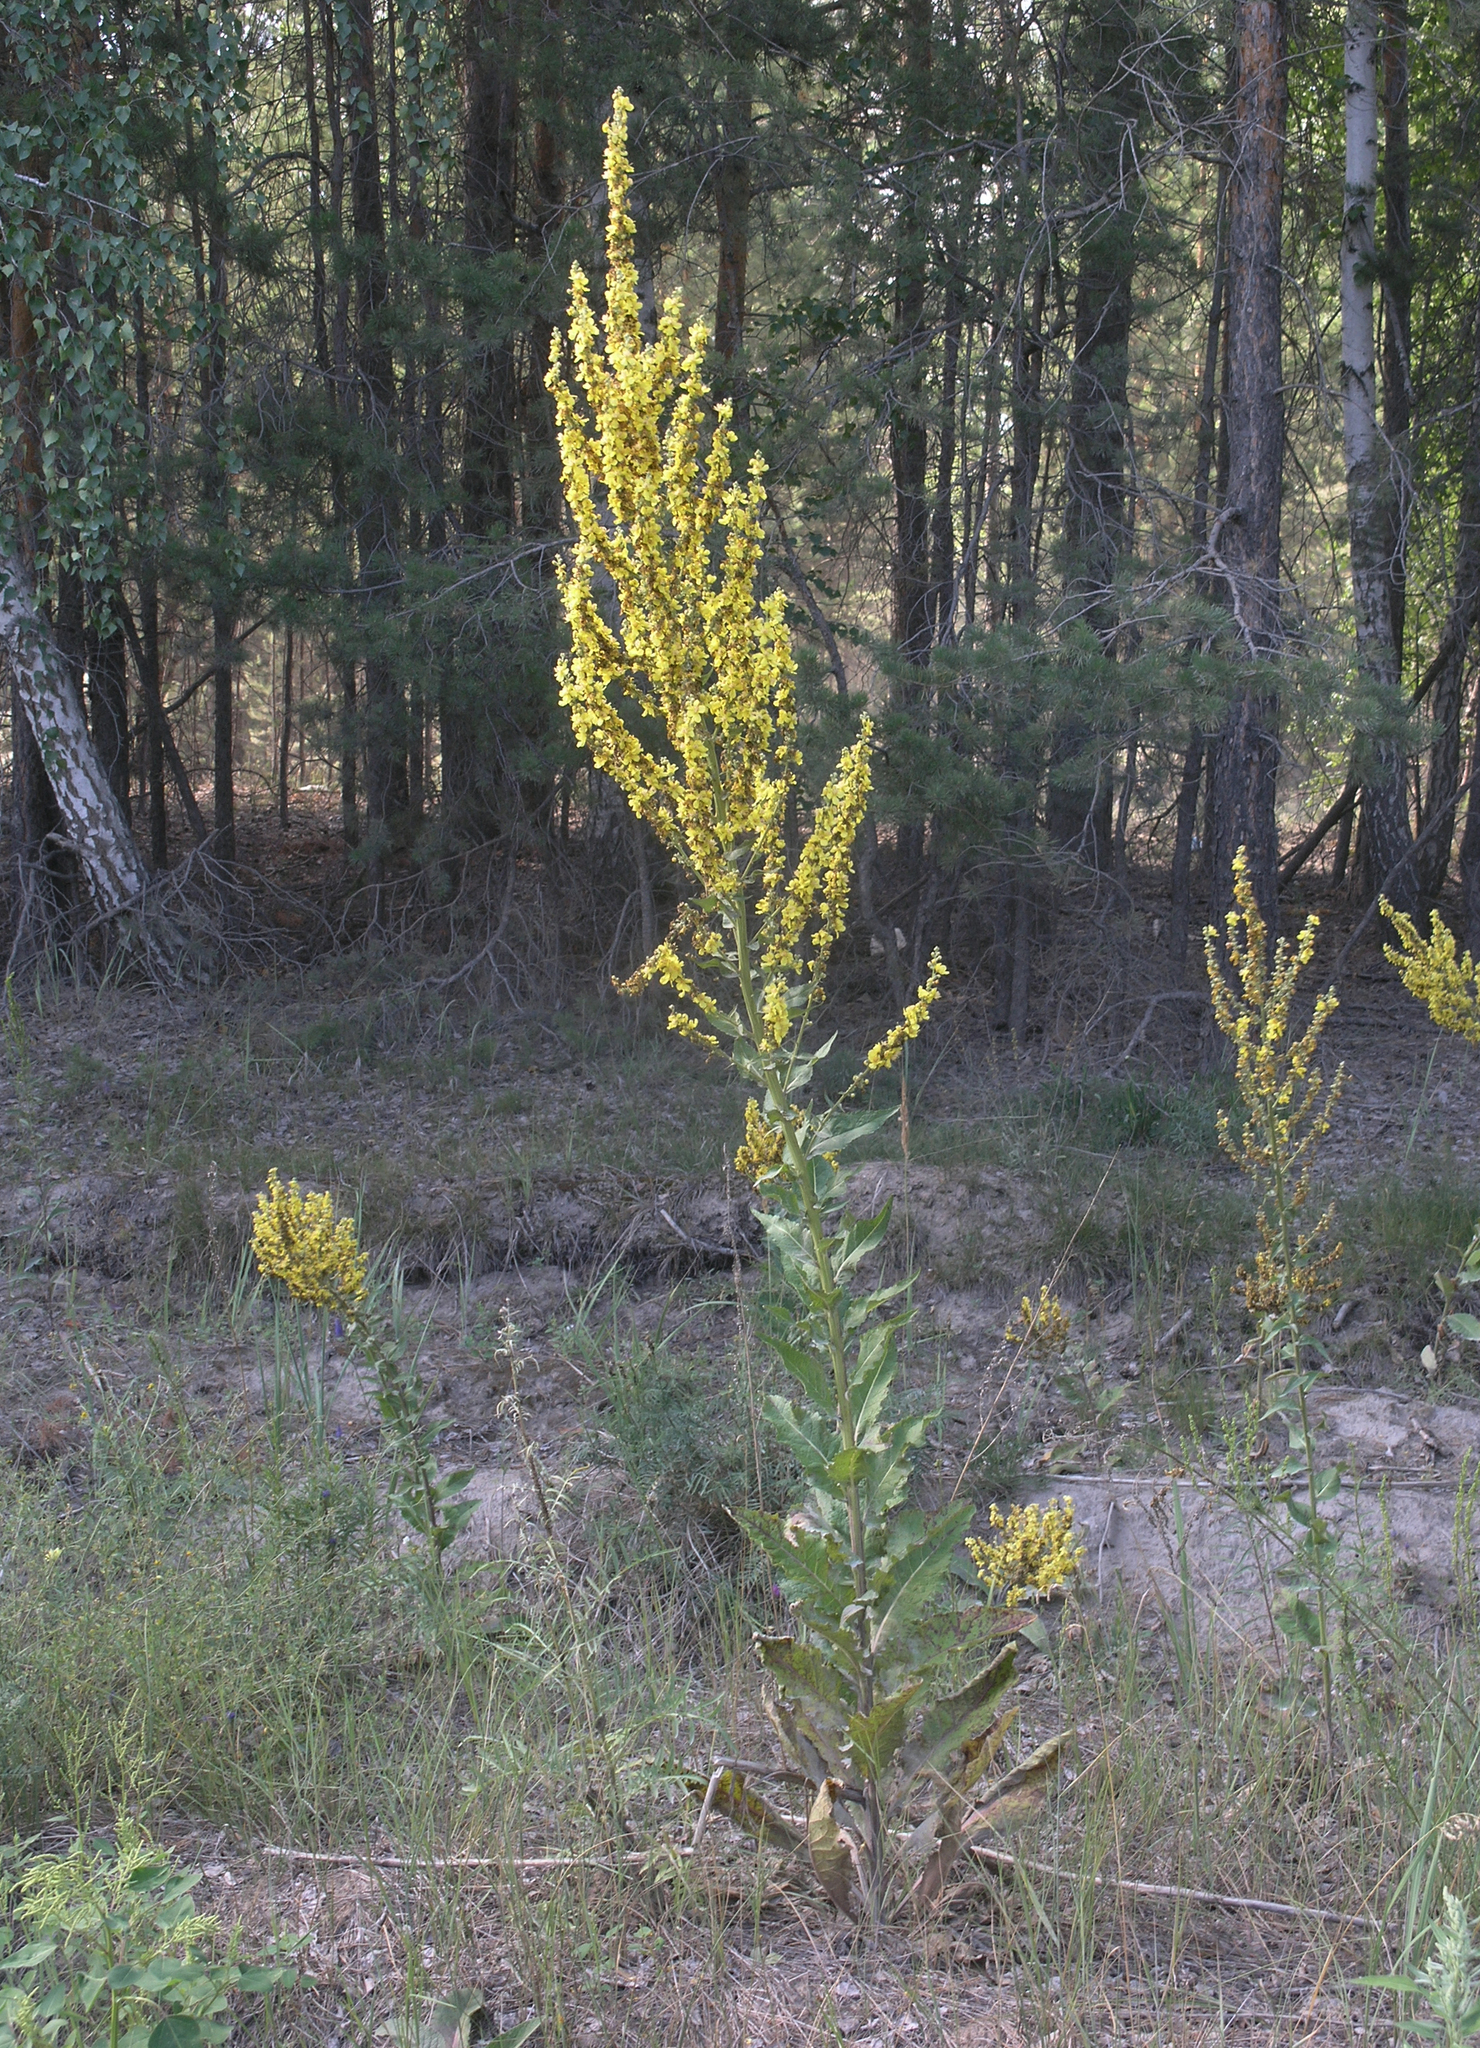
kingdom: Plantae
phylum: Tracheophyta
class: Magnoliopsida
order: Lamiales
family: Scrophulariaceae
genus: Verbascum
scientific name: Verbascum lychnitis
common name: White mullein
